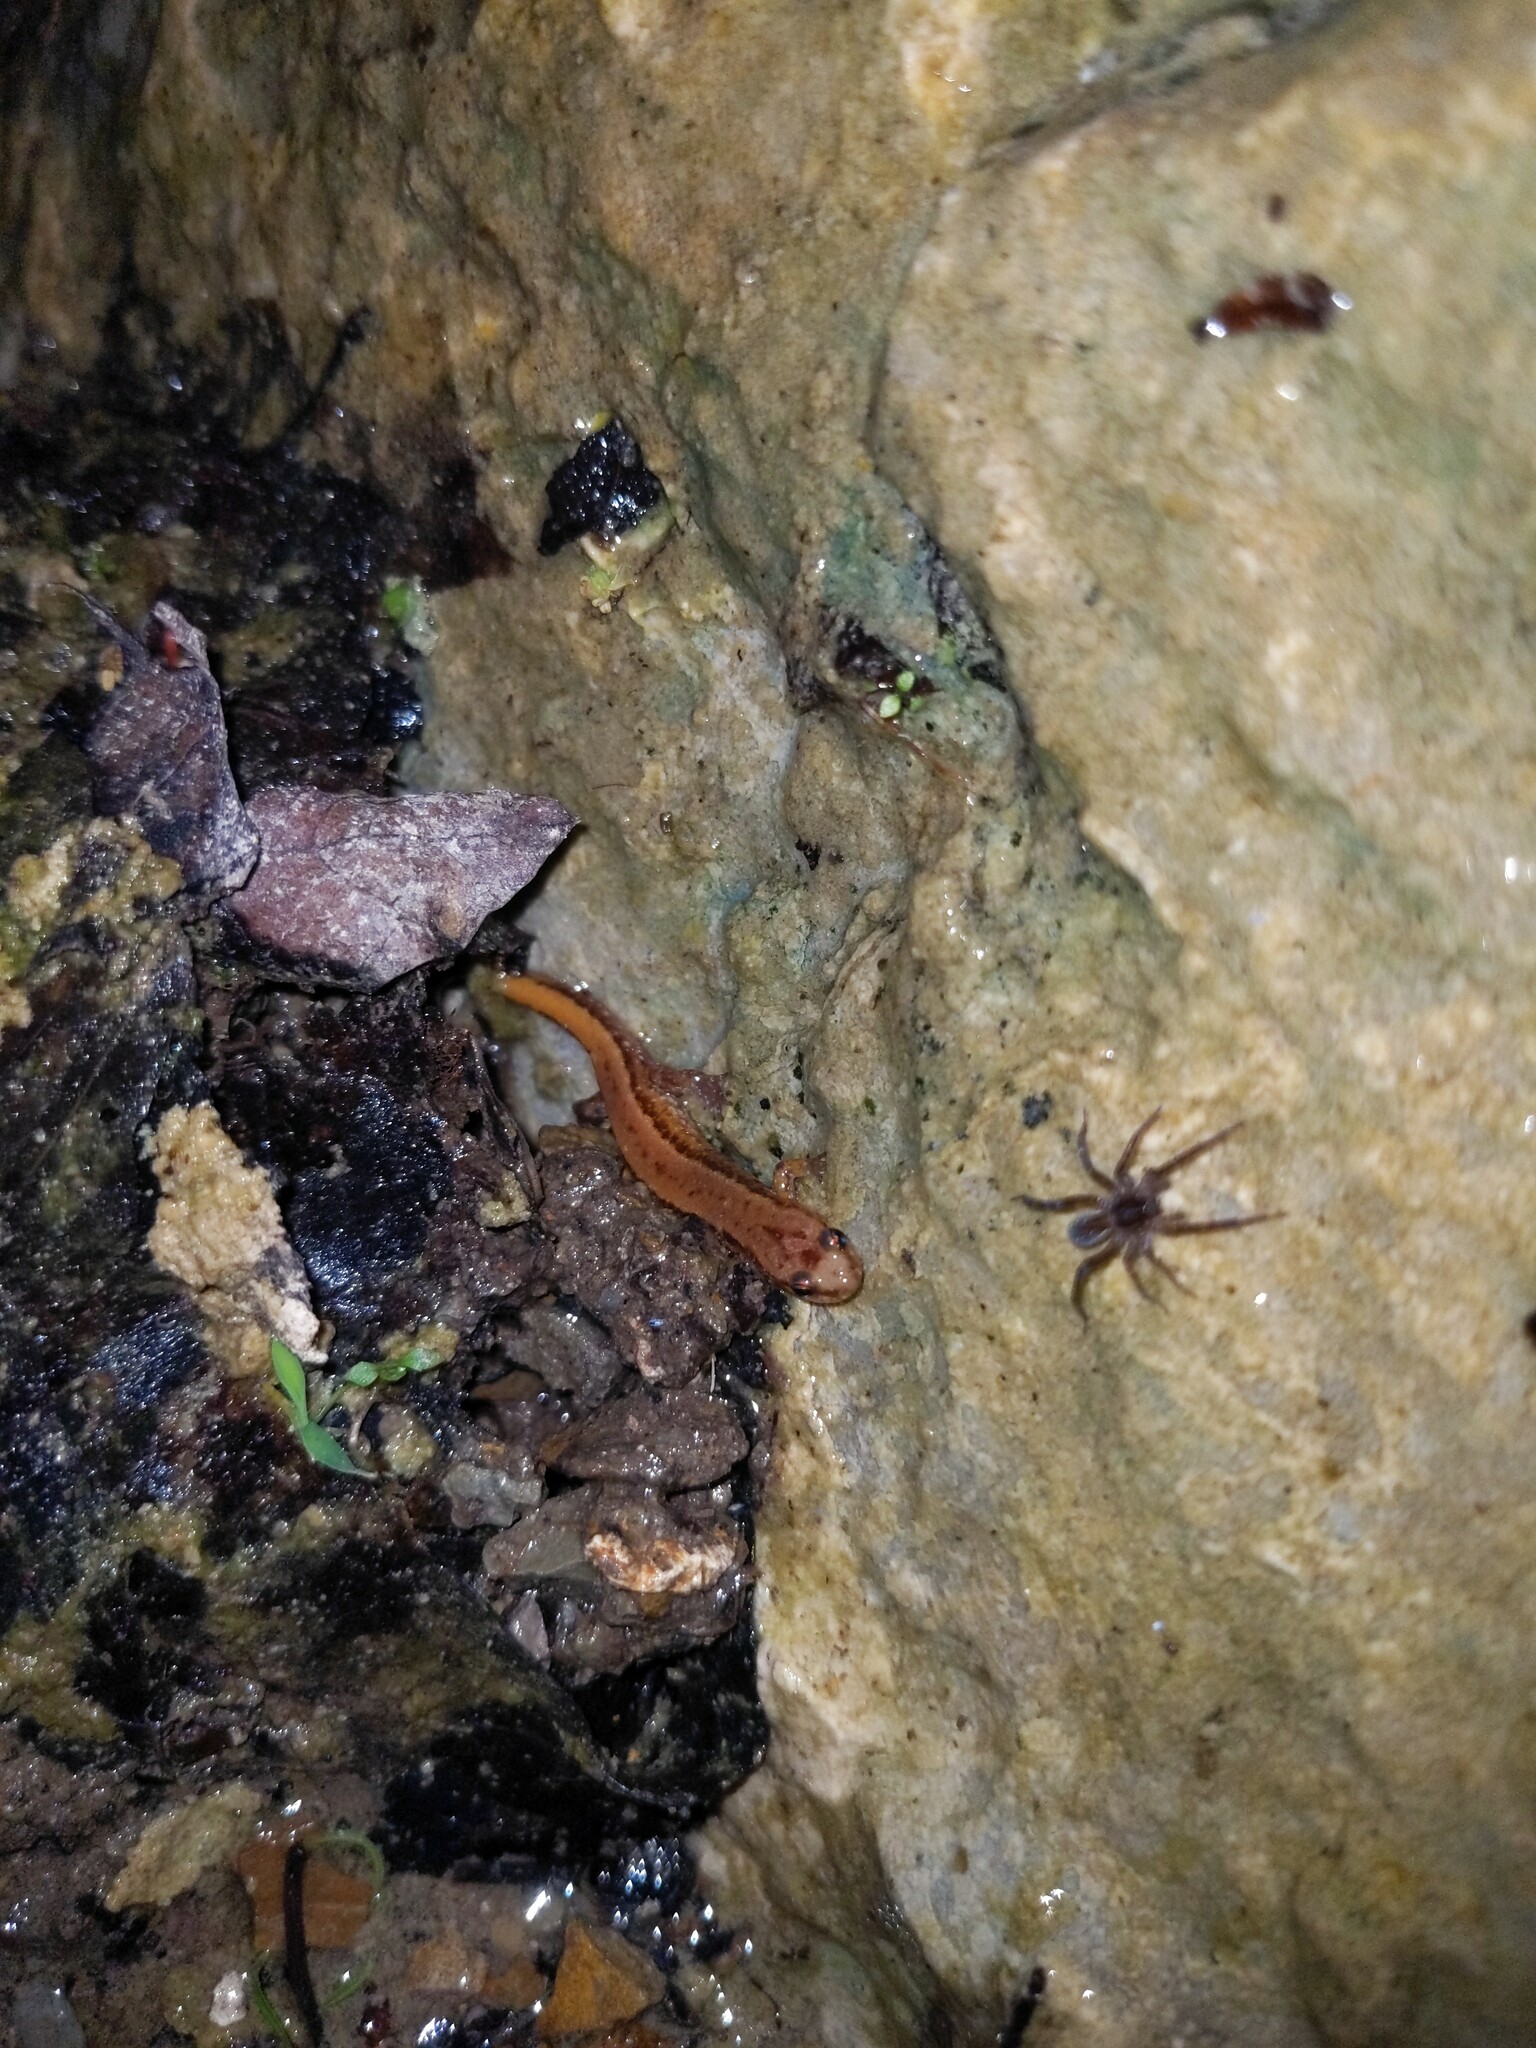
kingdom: Animalia
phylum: Chordata
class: Amphibia
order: Caudata
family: Plethodontidae
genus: Desmognathus
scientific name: Desmognathus ochrophaeus
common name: Allegheny mountain dusky salamander
